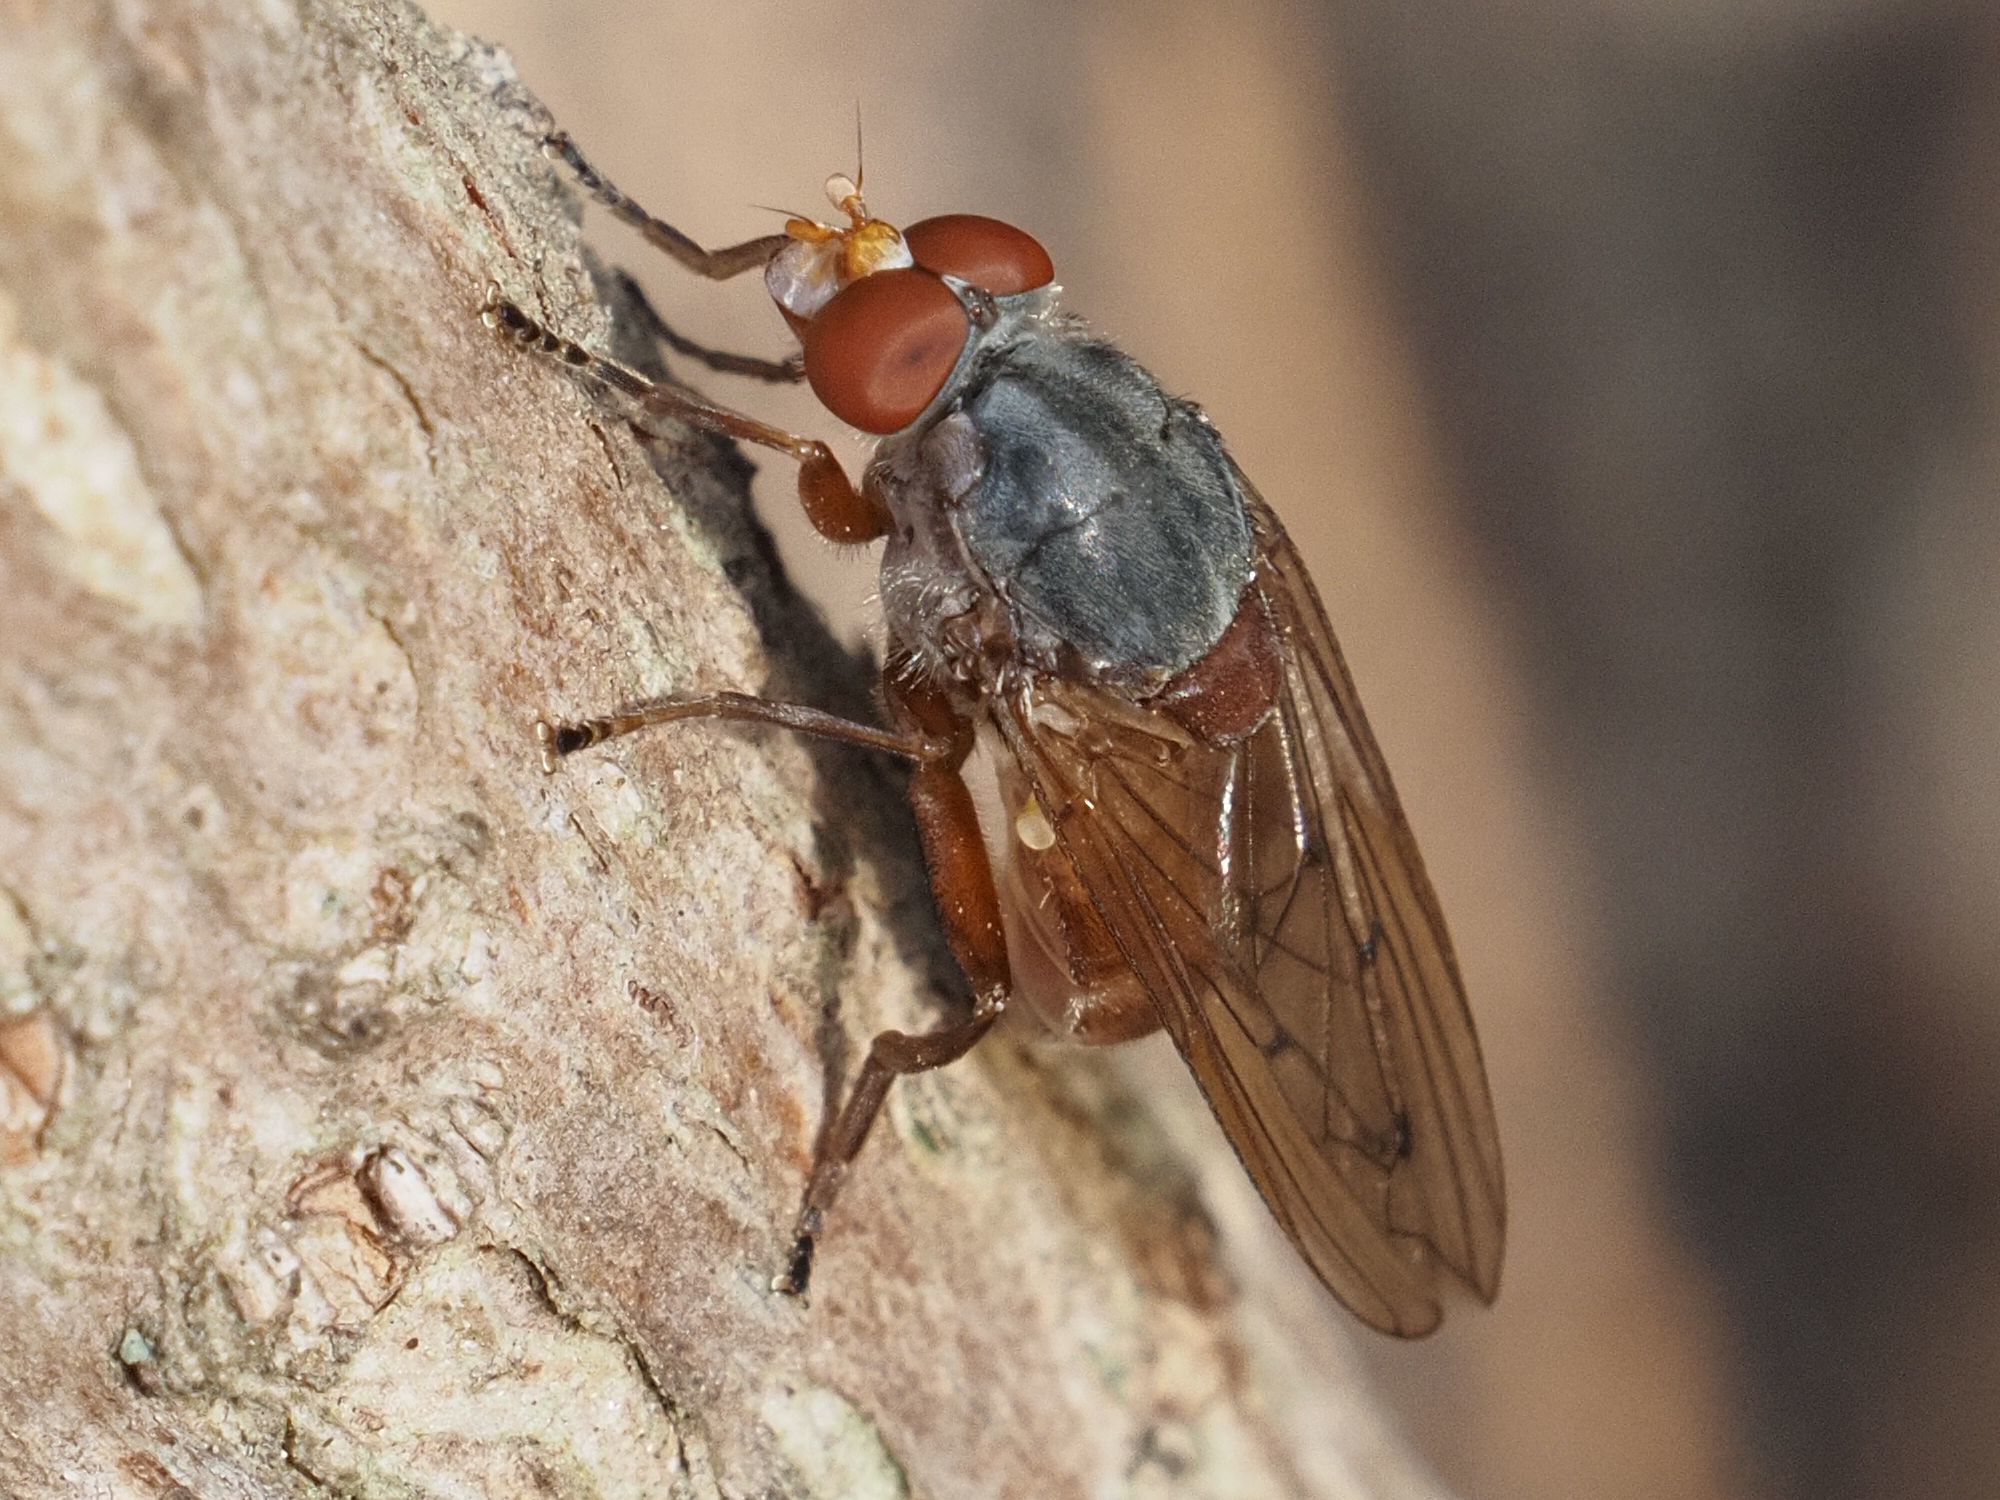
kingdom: Animalia
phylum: Arthropoda
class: Insecta
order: Diptera
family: Syrphidae
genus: Brachyopa
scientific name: Brachyopa maculipennis
